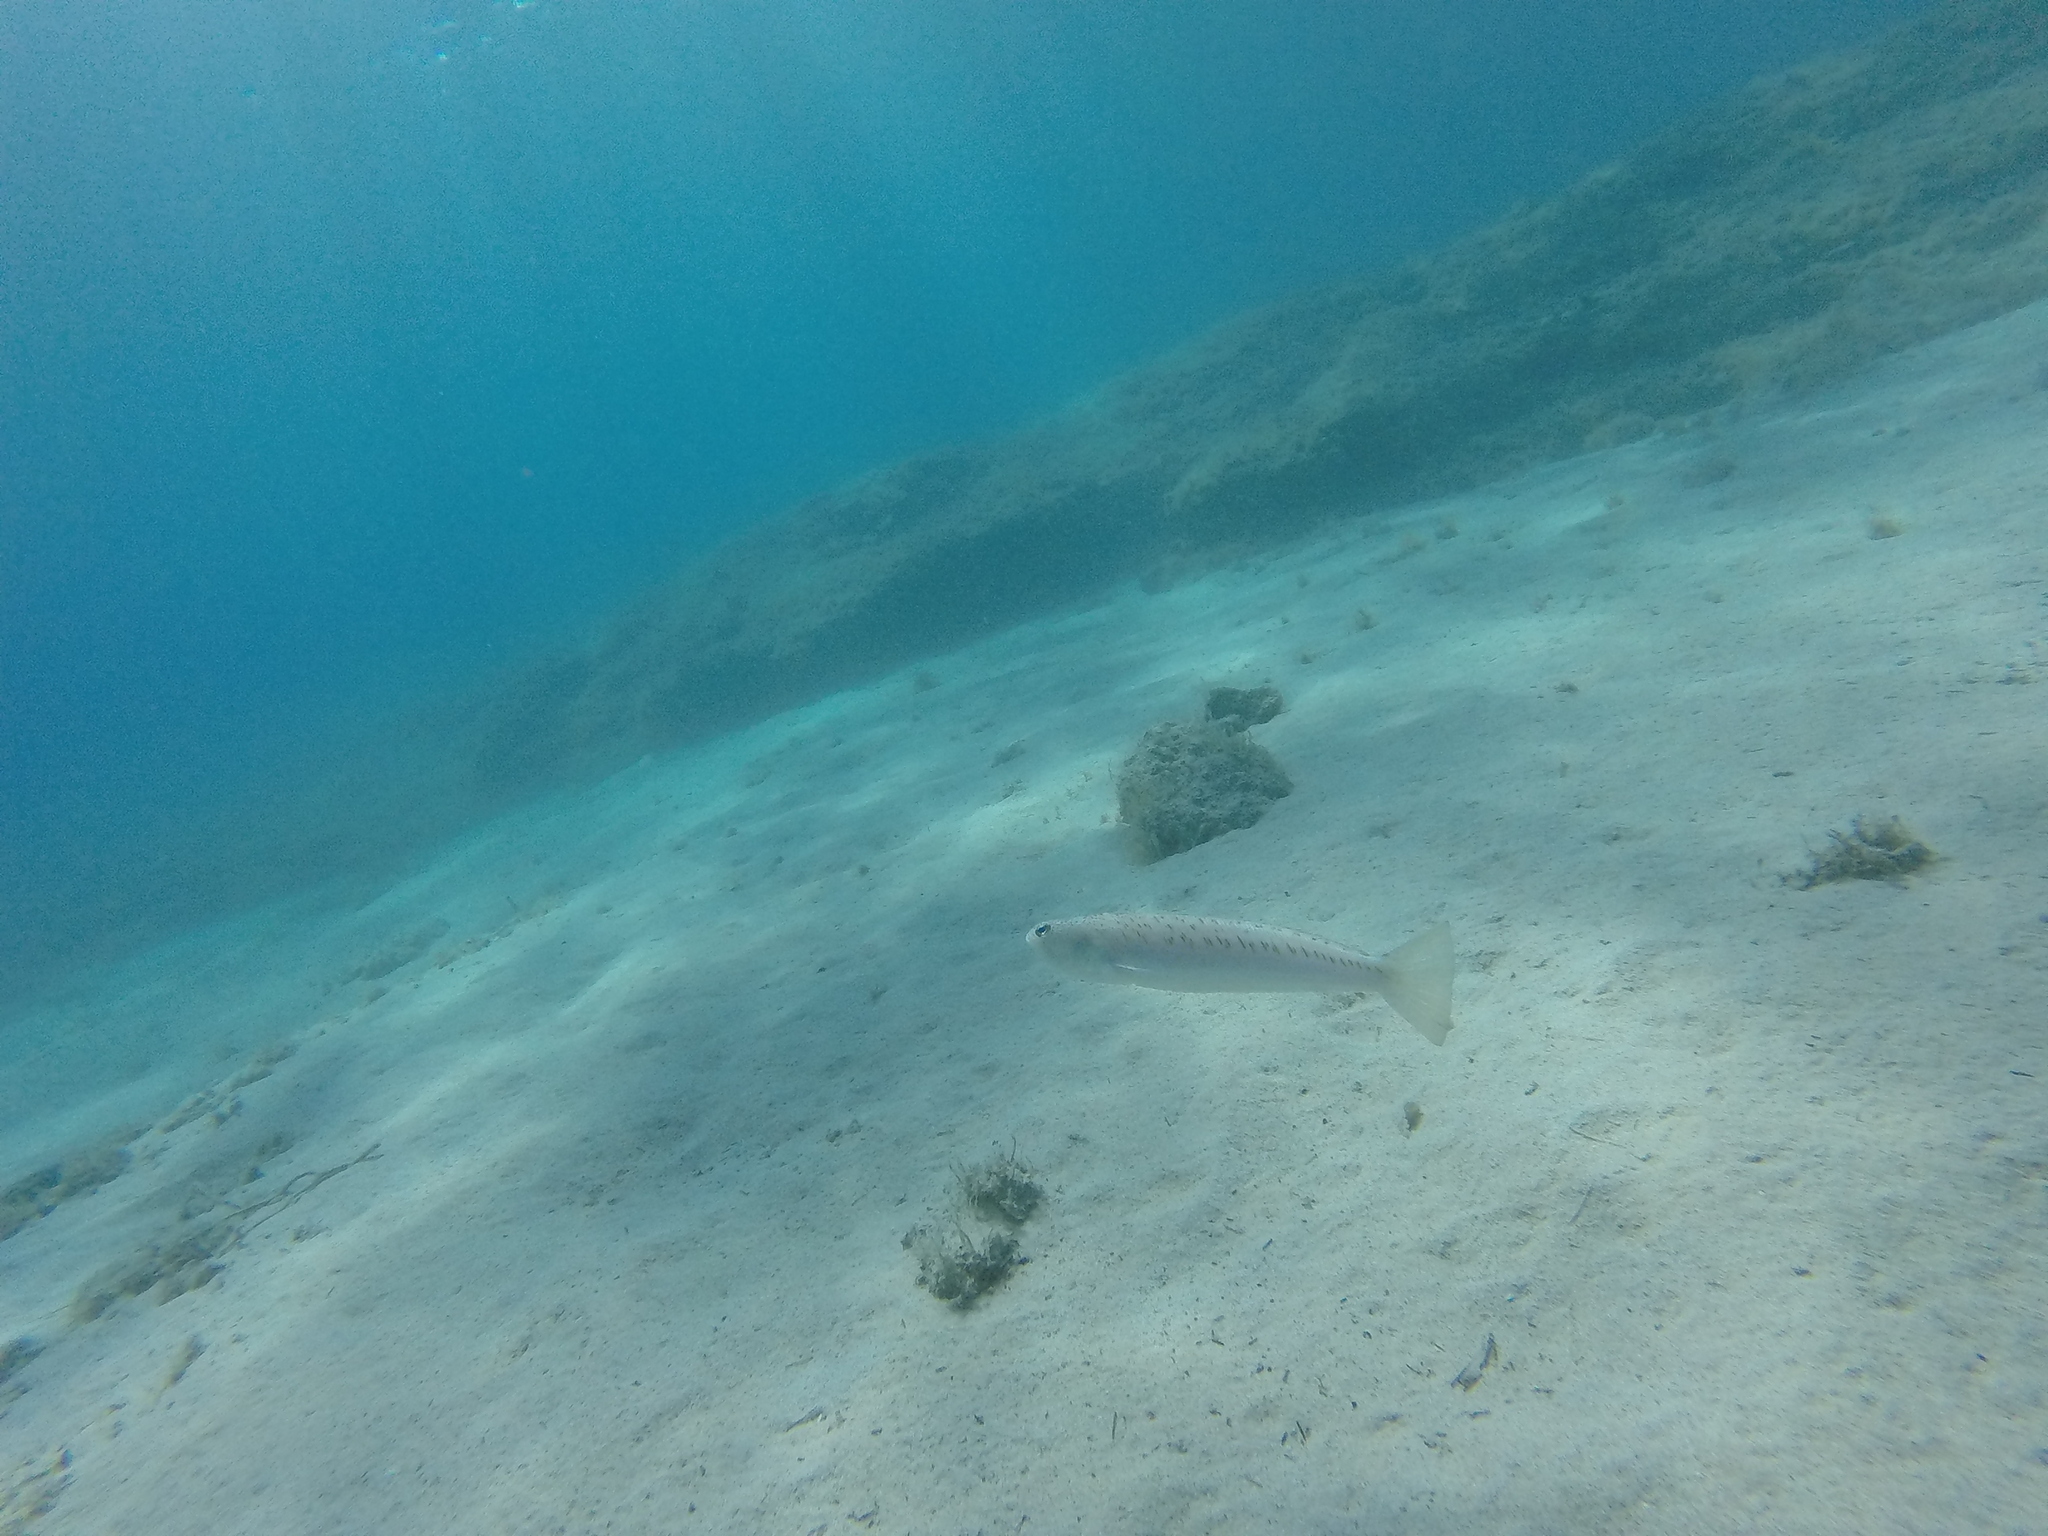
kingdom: Animalia
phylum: Chordata
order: Perciformes
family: Trachinidae
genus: Trachinus
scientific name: Trachinus draco
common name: Greater weever
